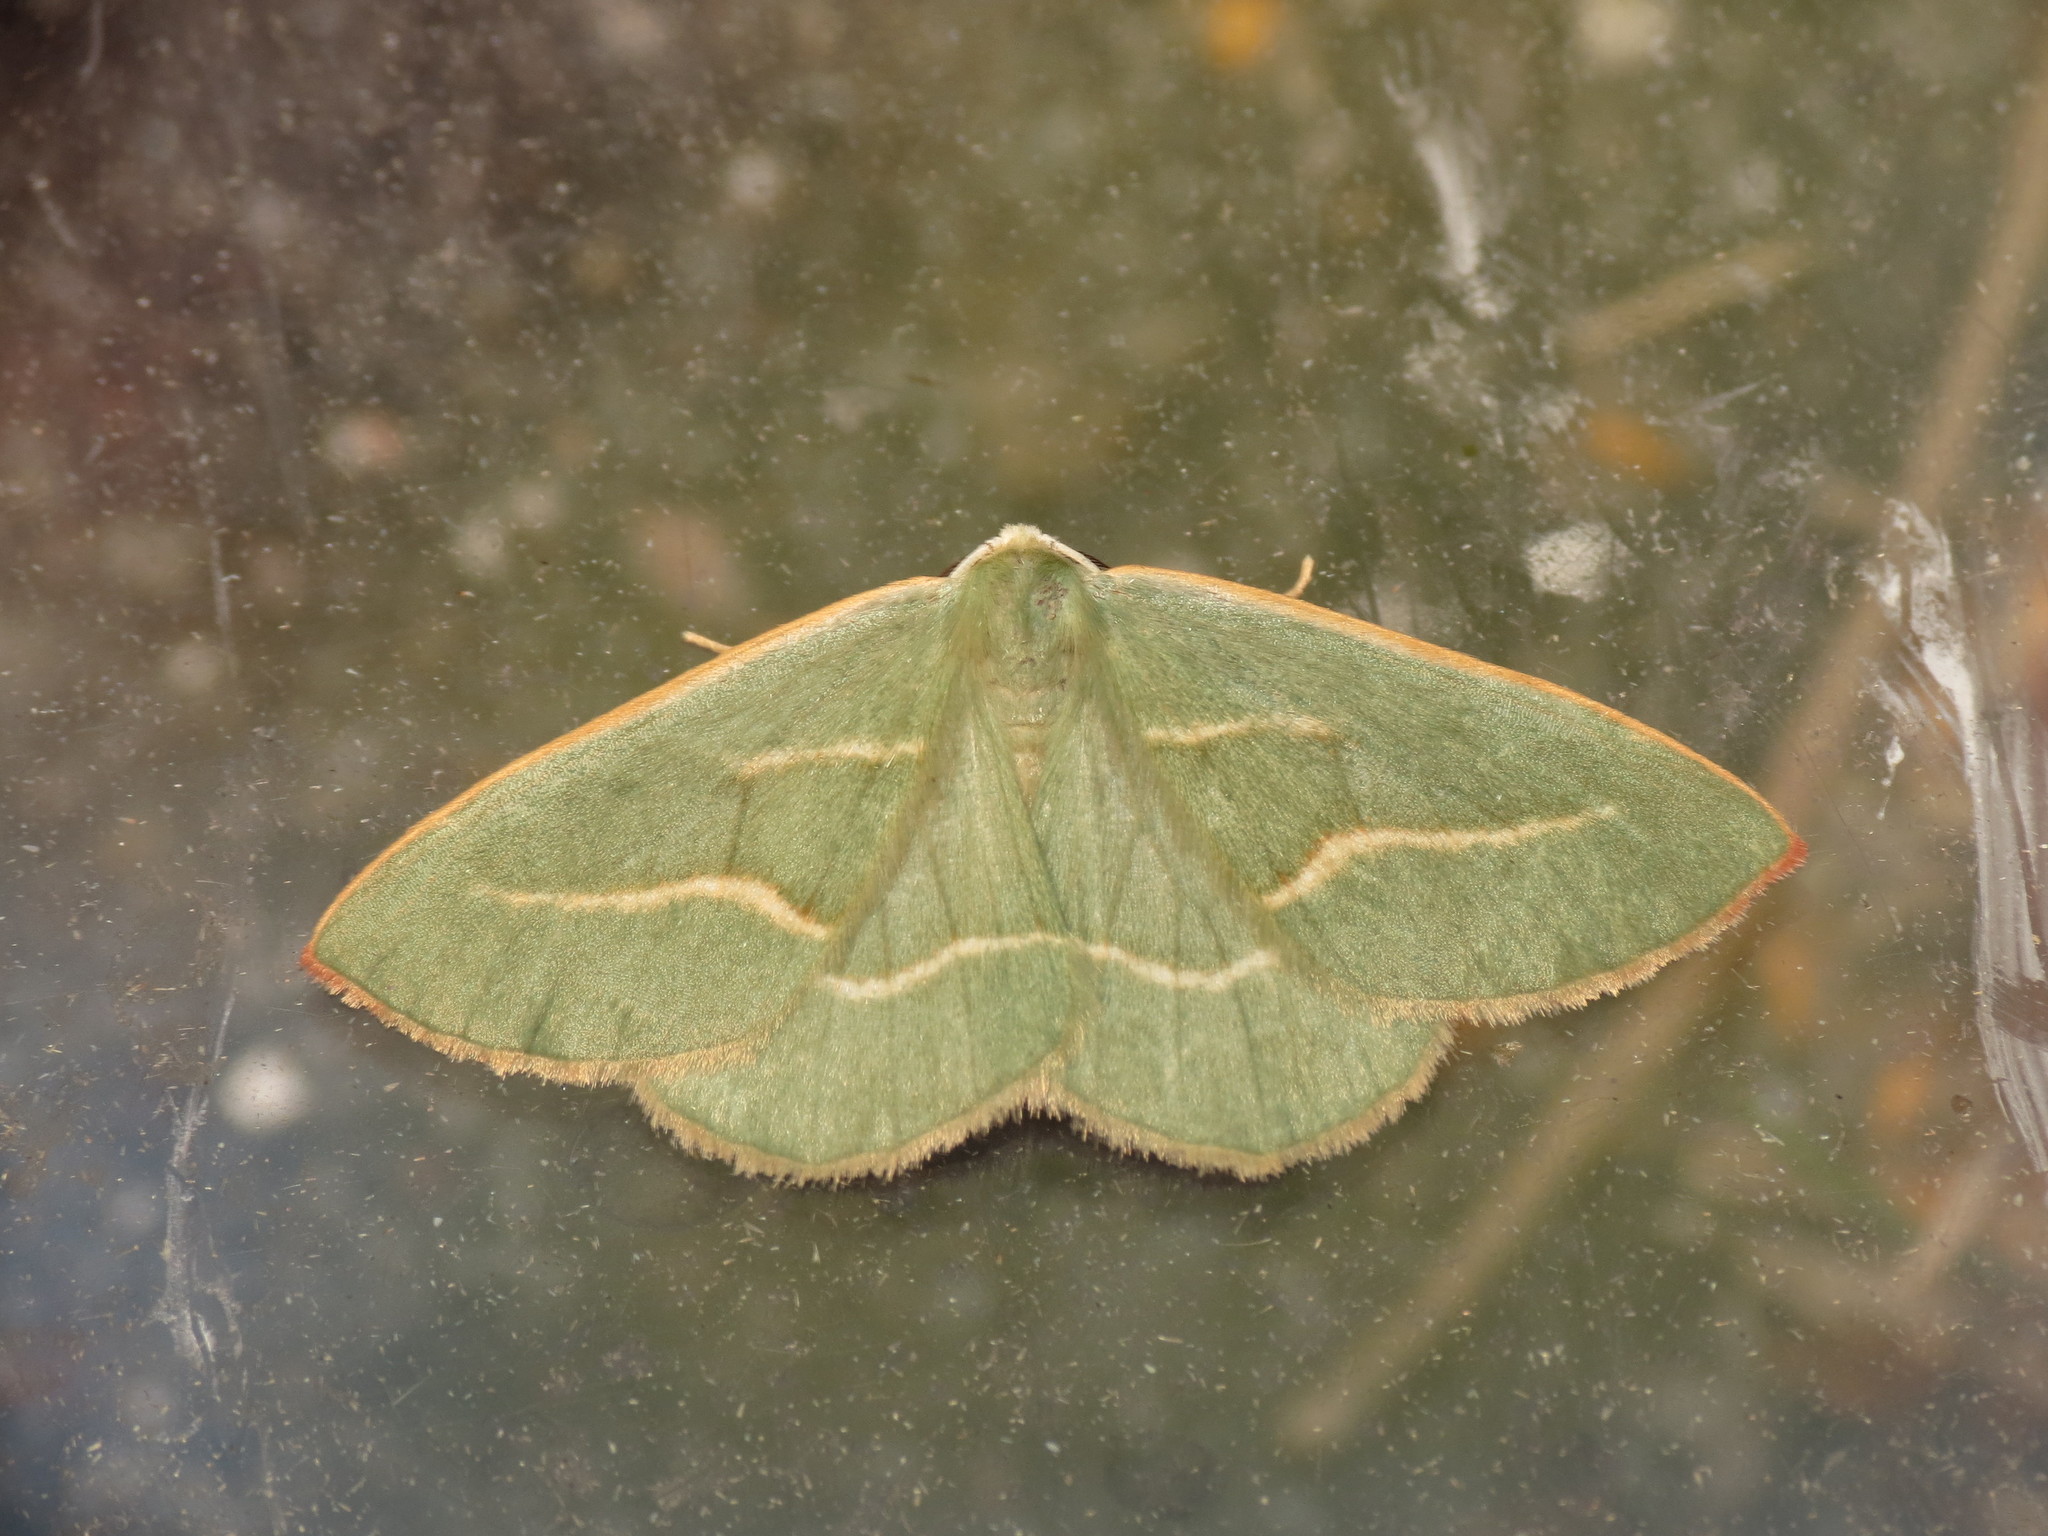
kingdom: Animalia
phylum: Arthropoda
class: Insecta
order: Lepidoptera
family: Geometridae
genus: Hylaea
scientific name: Hylaea fasciaria
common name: Barred red
